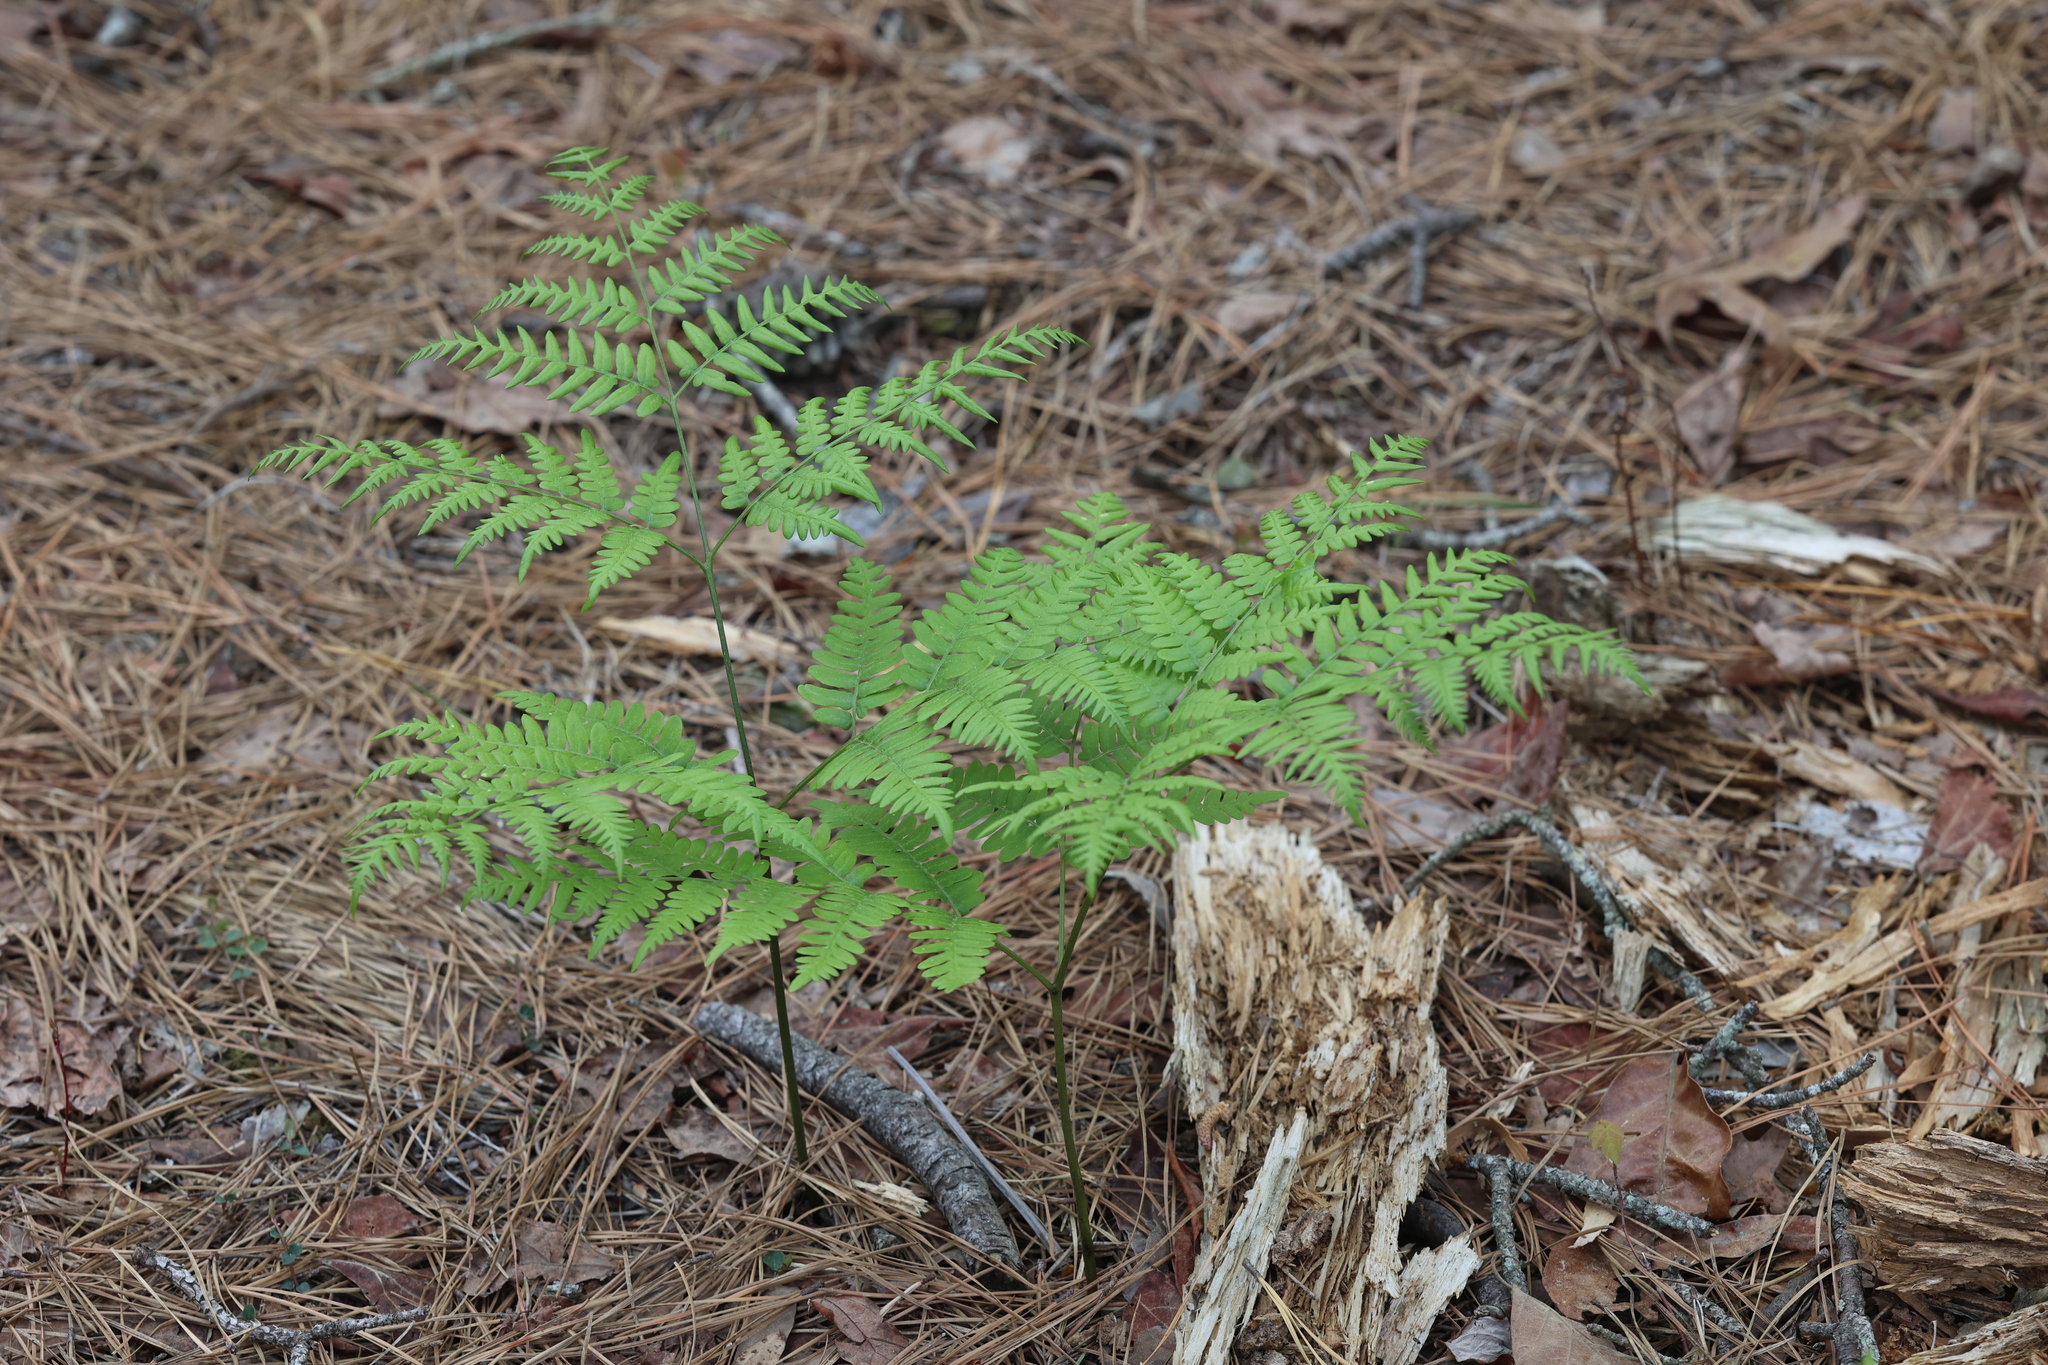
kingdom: Plantae
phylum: Tracheophyta
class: Polypodiopsida
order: Polypodiales
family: Dennstaedtiaceae
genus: Pteridium
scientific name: Pteridium aquilinum
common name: Bracken
